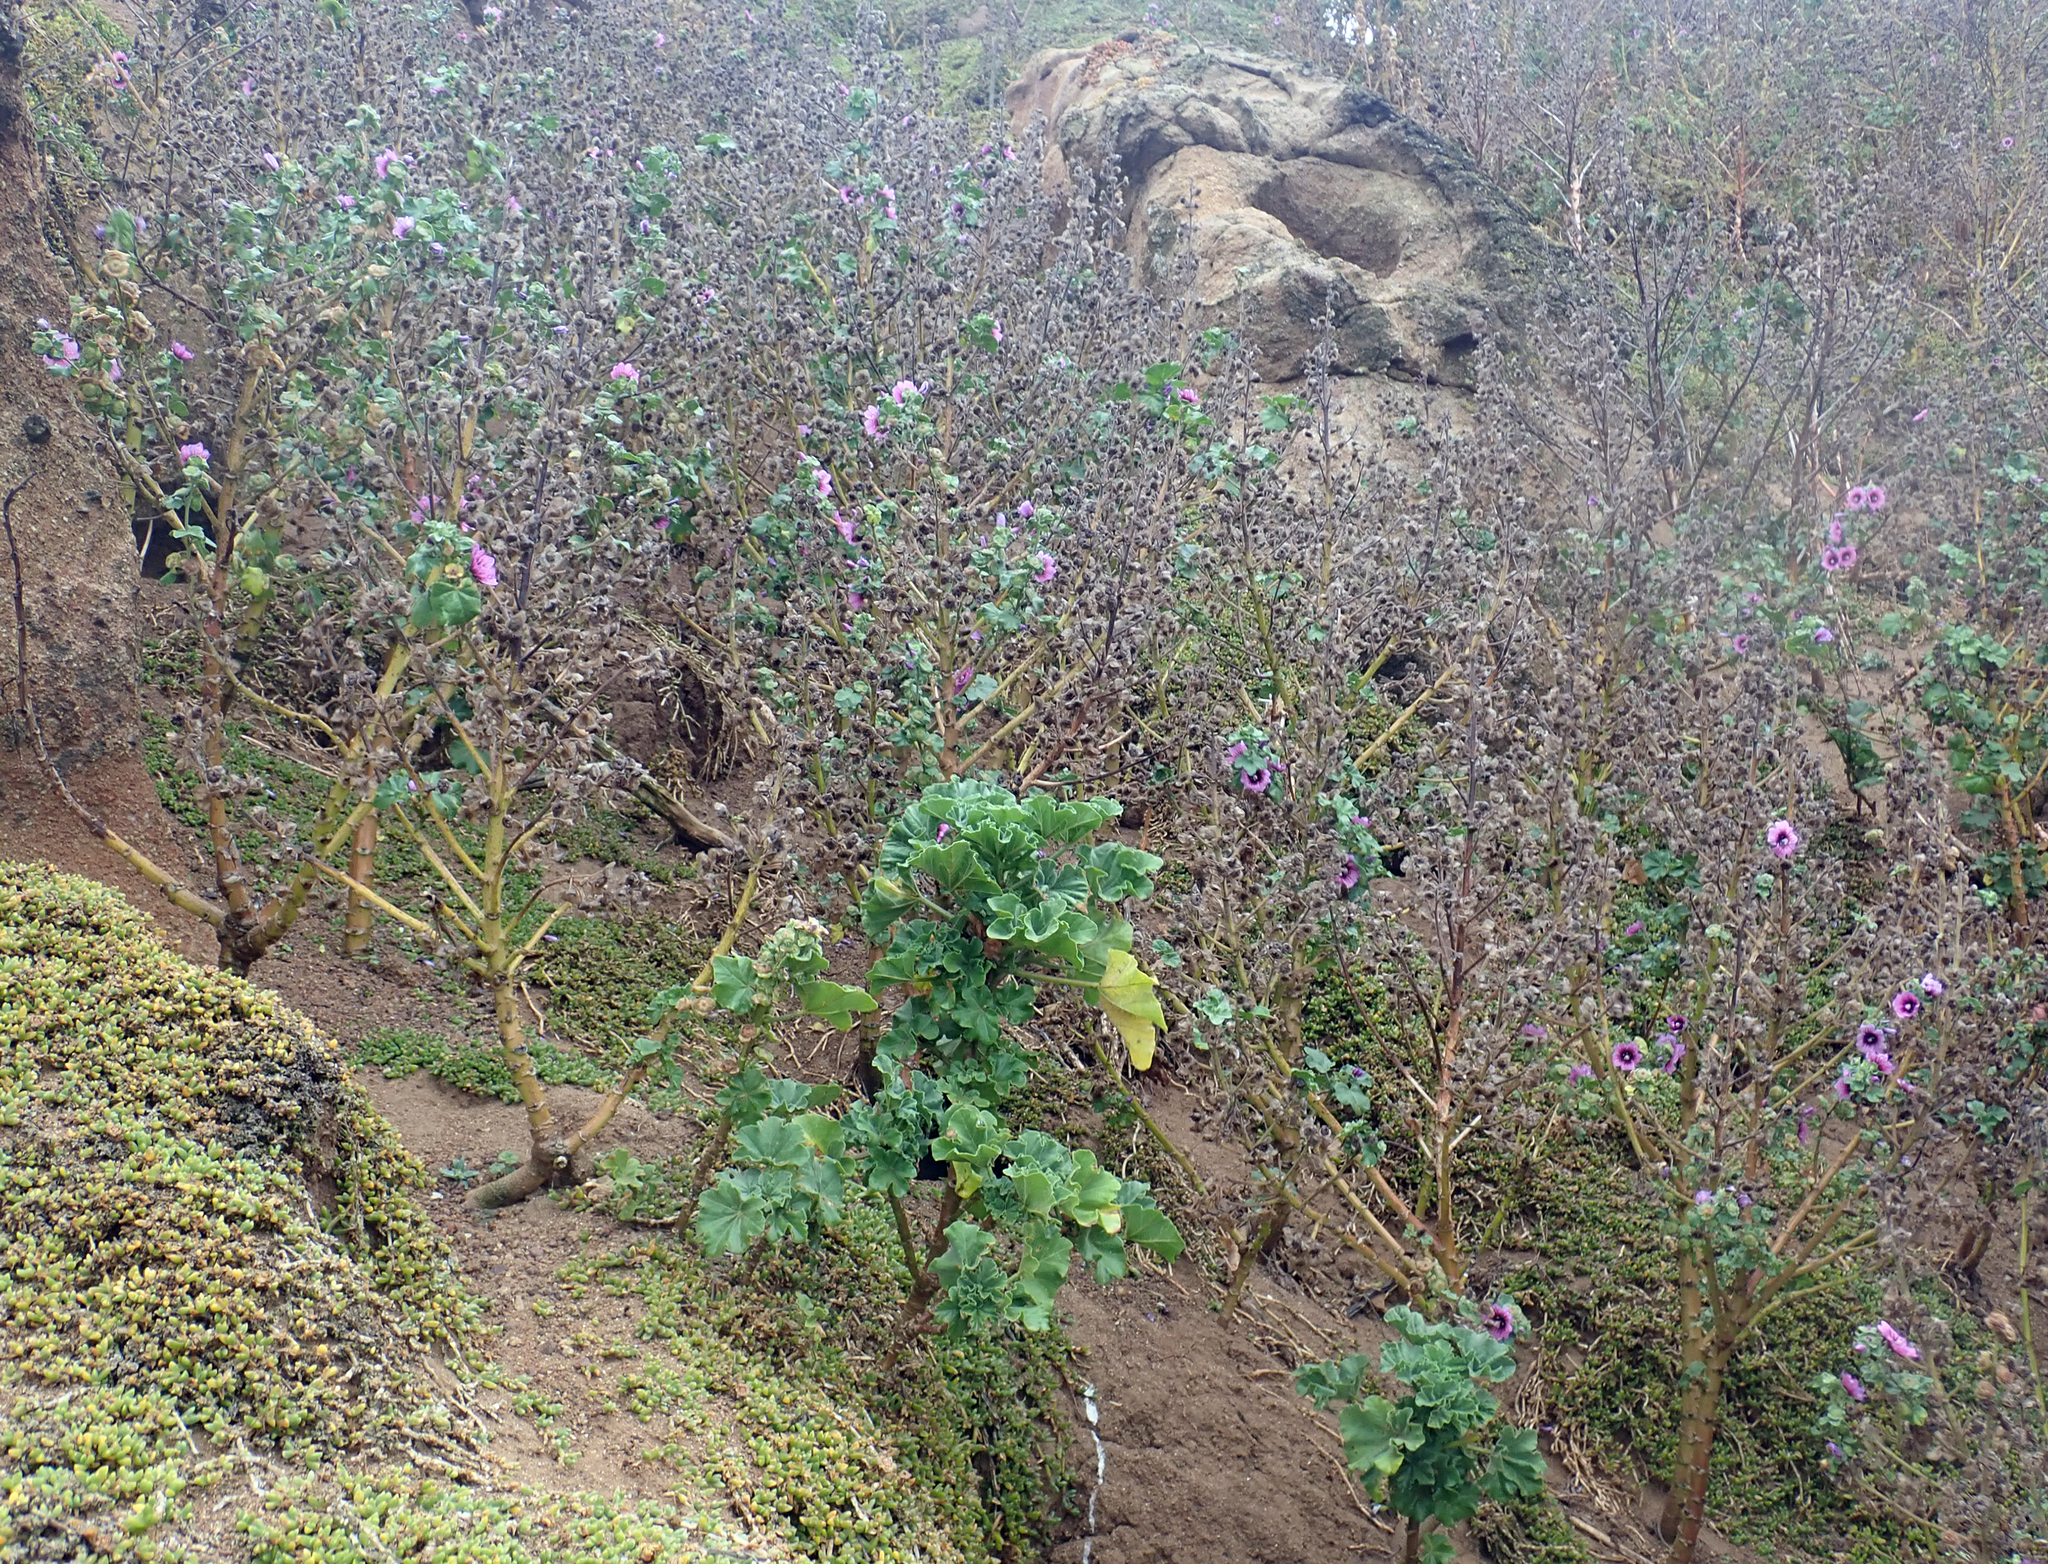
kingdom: Plantae
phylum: Tracheophyta
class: Magnoliopsida
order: Malvales
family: Malvaceae
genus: Malva
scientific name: Malva arborea
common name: Tree mallow
